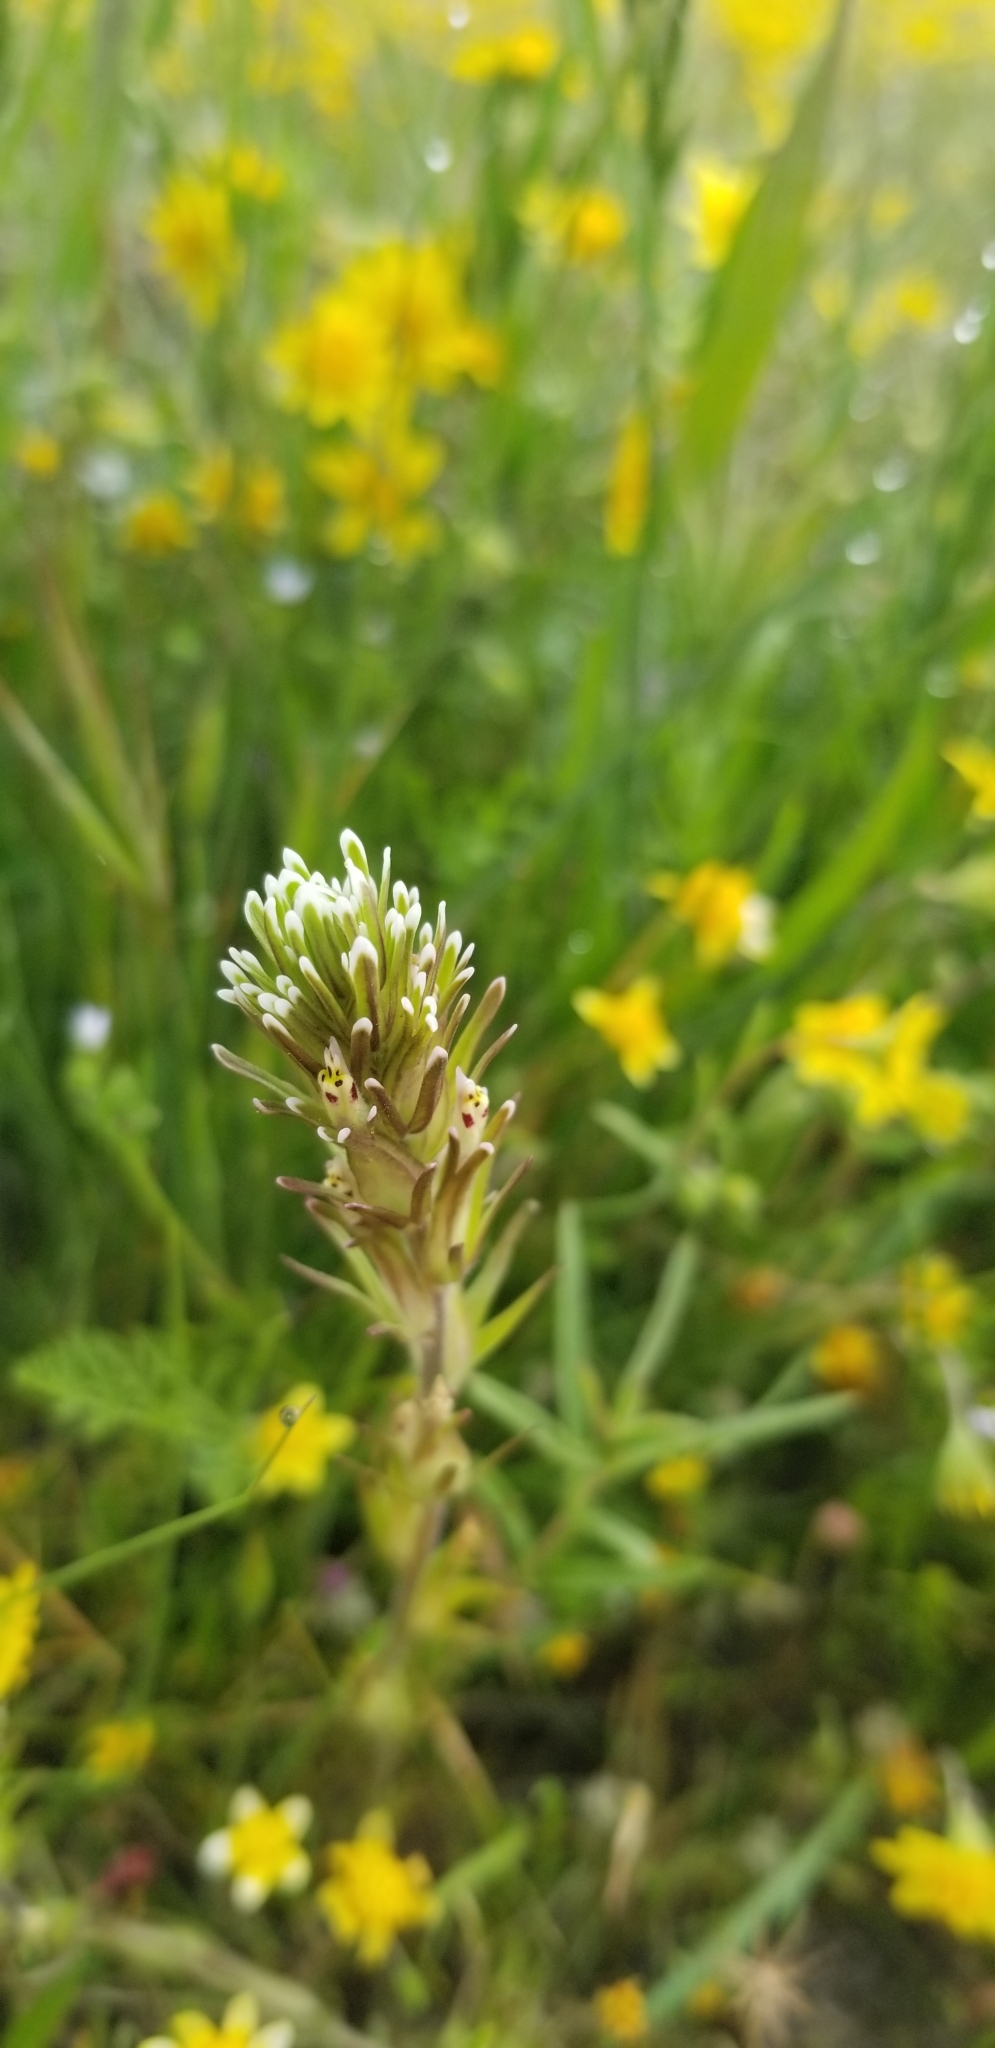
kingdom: Plantae
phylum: Tracheophyta
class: Magnoliopsida
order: Lamiales
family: Orobanchaceae
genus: Castilleja
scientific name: Castilleja attenuata
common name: Valley tassels
